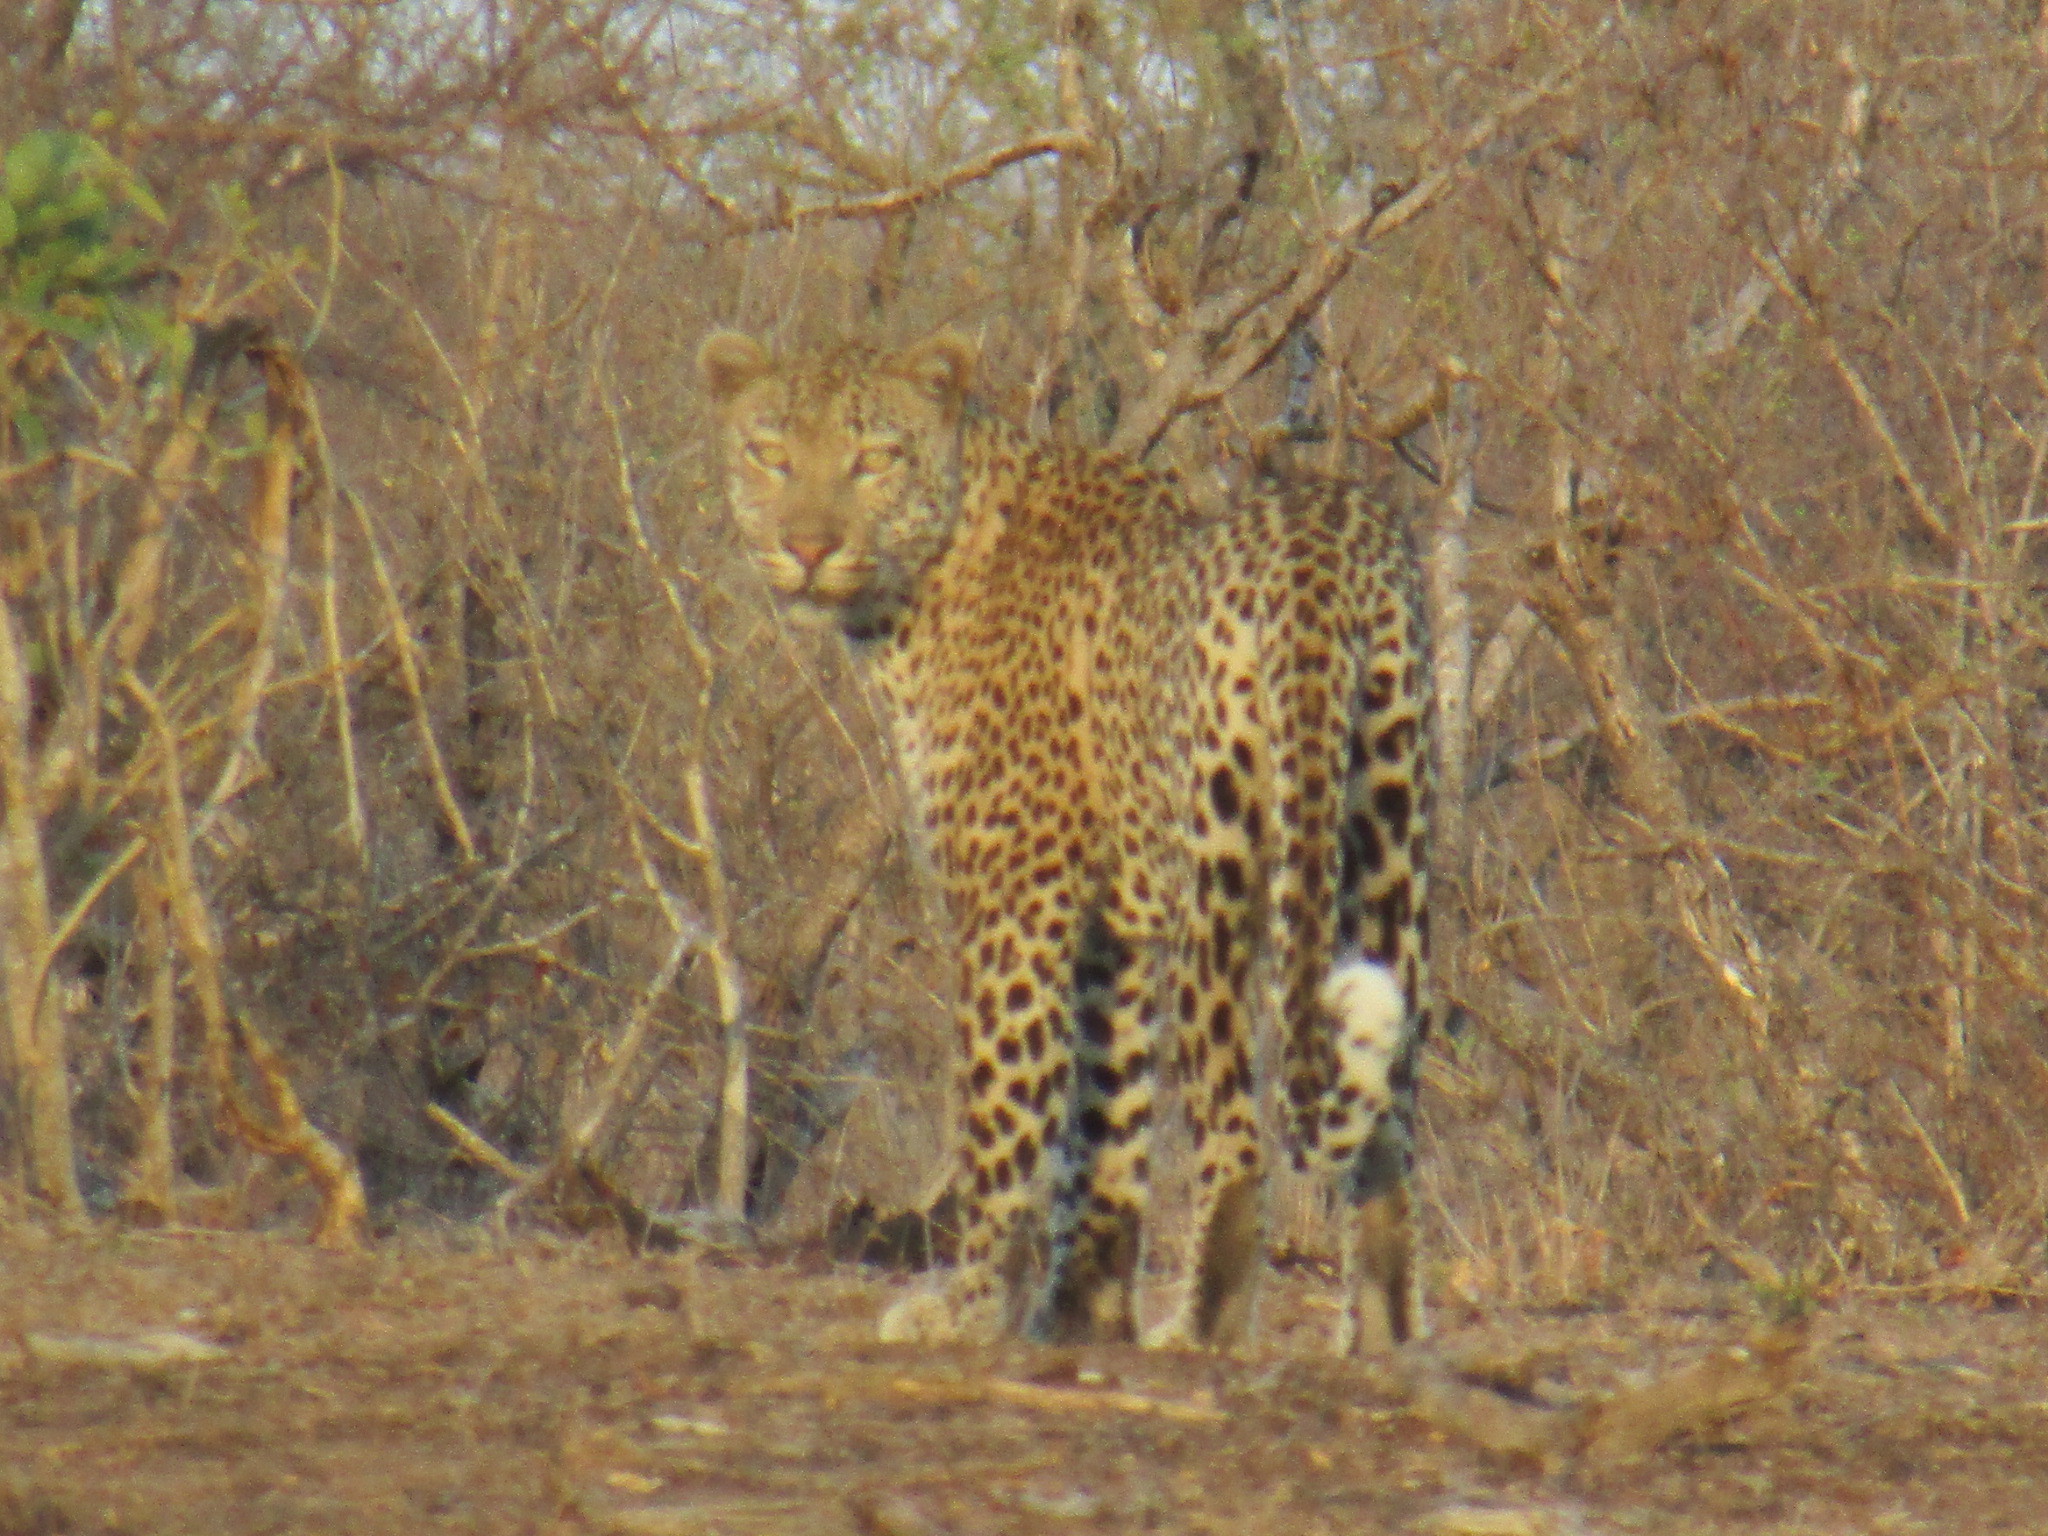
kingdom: Animalia
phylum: Chordata
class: Mammalia
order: Carnivora
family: Felidae
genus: Panthera
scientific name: Panthera pardus
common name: Leopard
